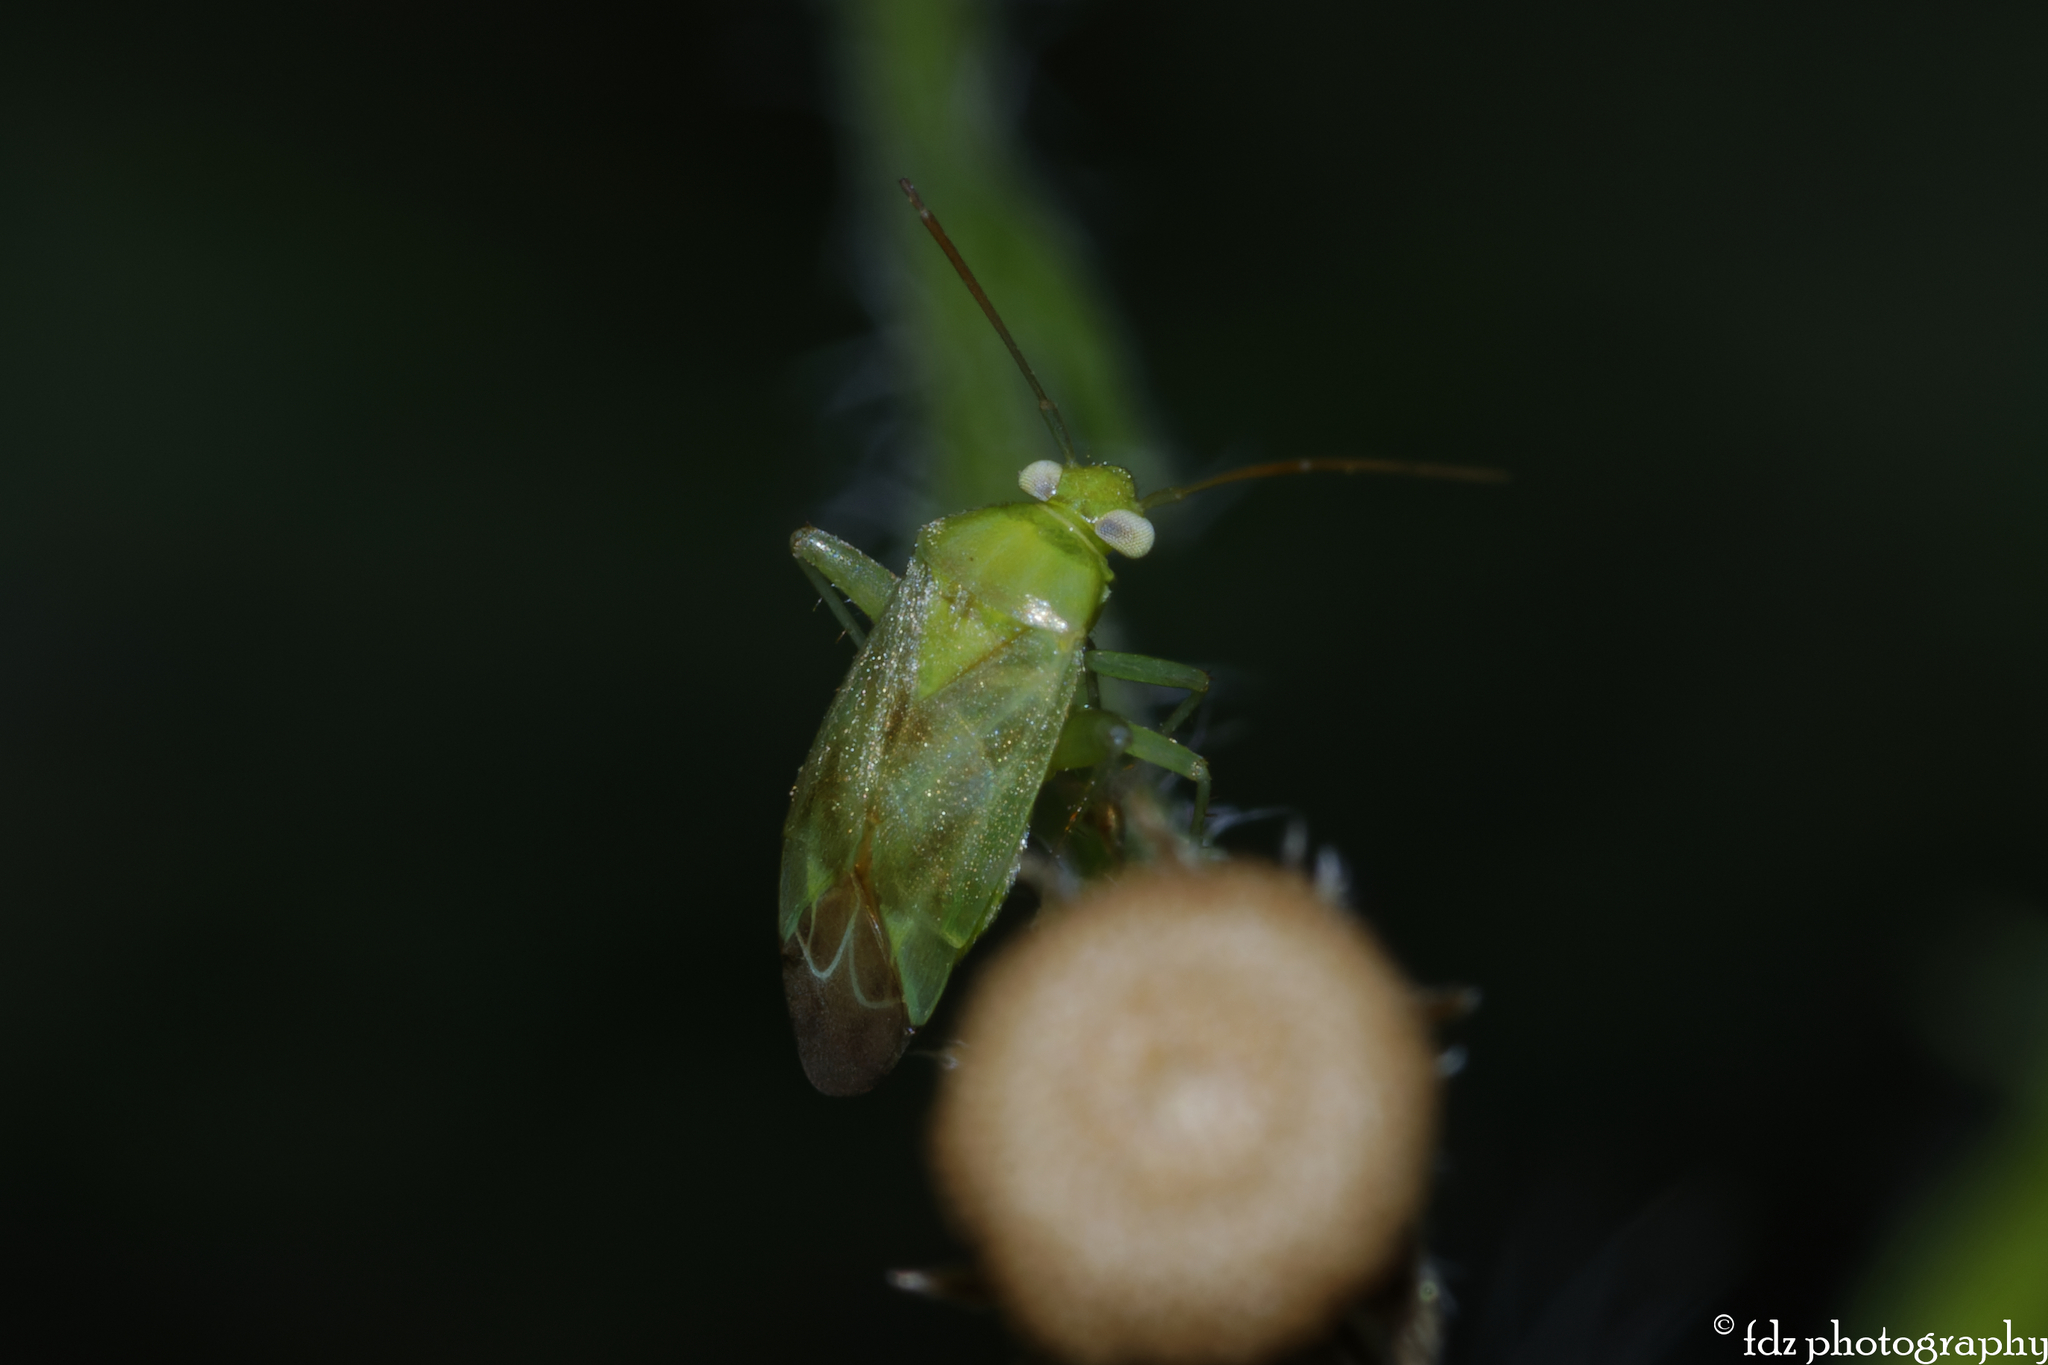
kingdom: Animalia
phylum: Arthropoda
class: Insecta
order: Hemiptera
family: Miridae
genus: Taylorilygus
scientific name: Taylorilygus apicalis
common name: Plant bug
